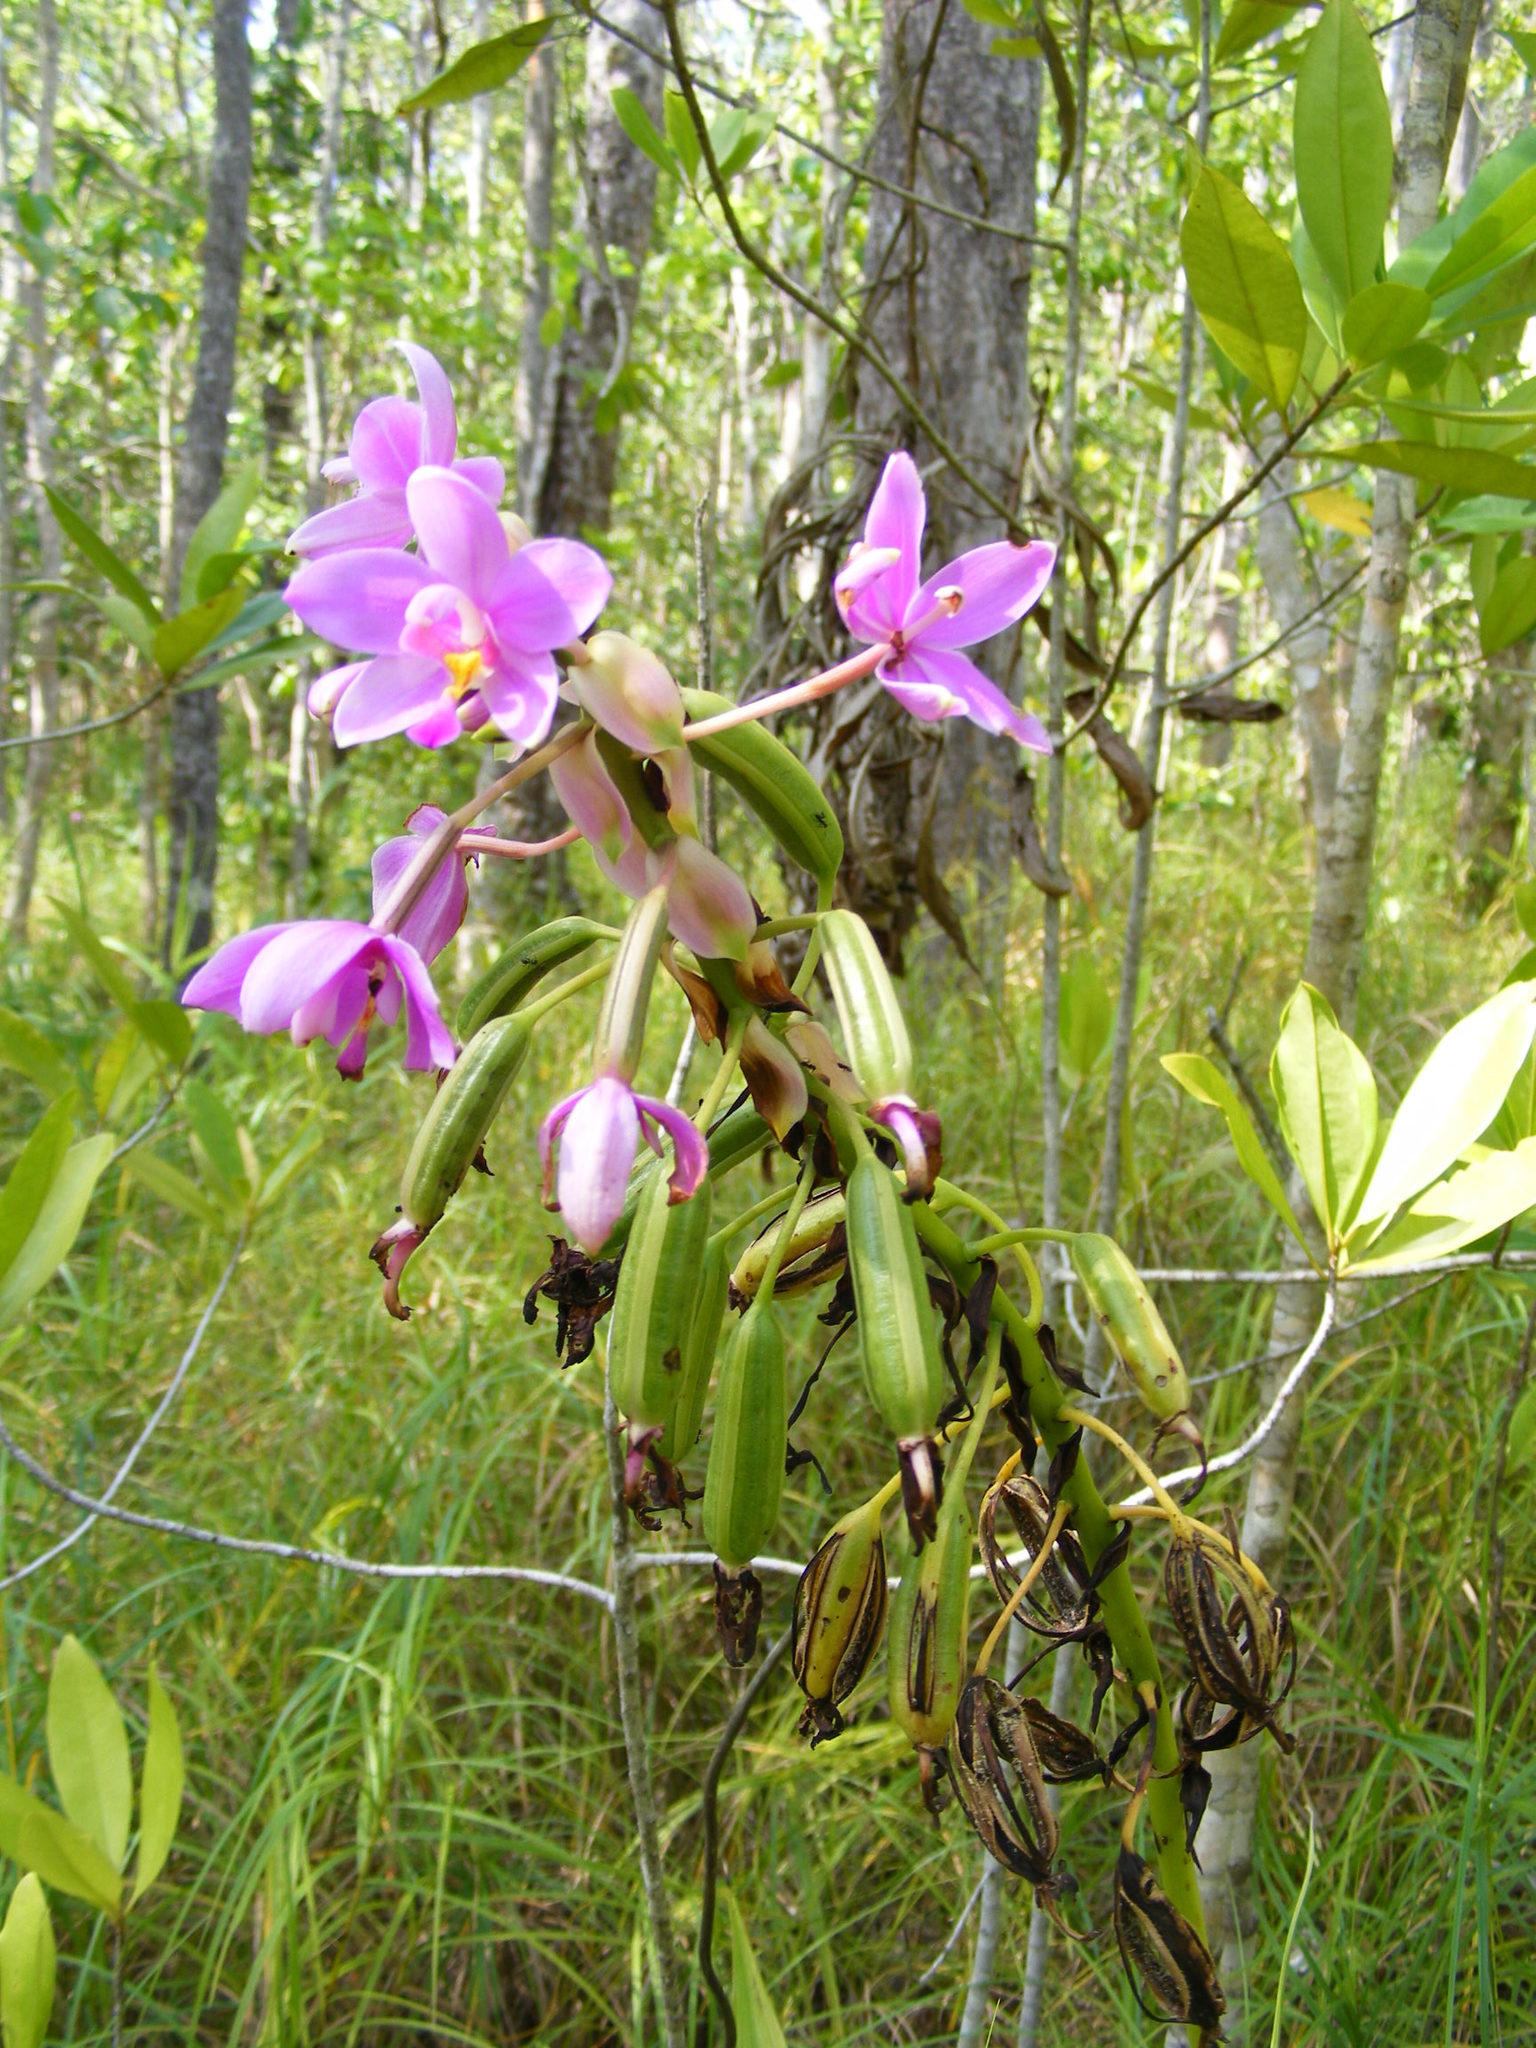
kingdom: Plantae
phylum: Tracheophyta
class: Liliopsida
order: Asparagales
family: Orchidaceae
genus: Spathoglottis
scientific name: Spathoglottis plicata
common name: Philippine ground orchid
